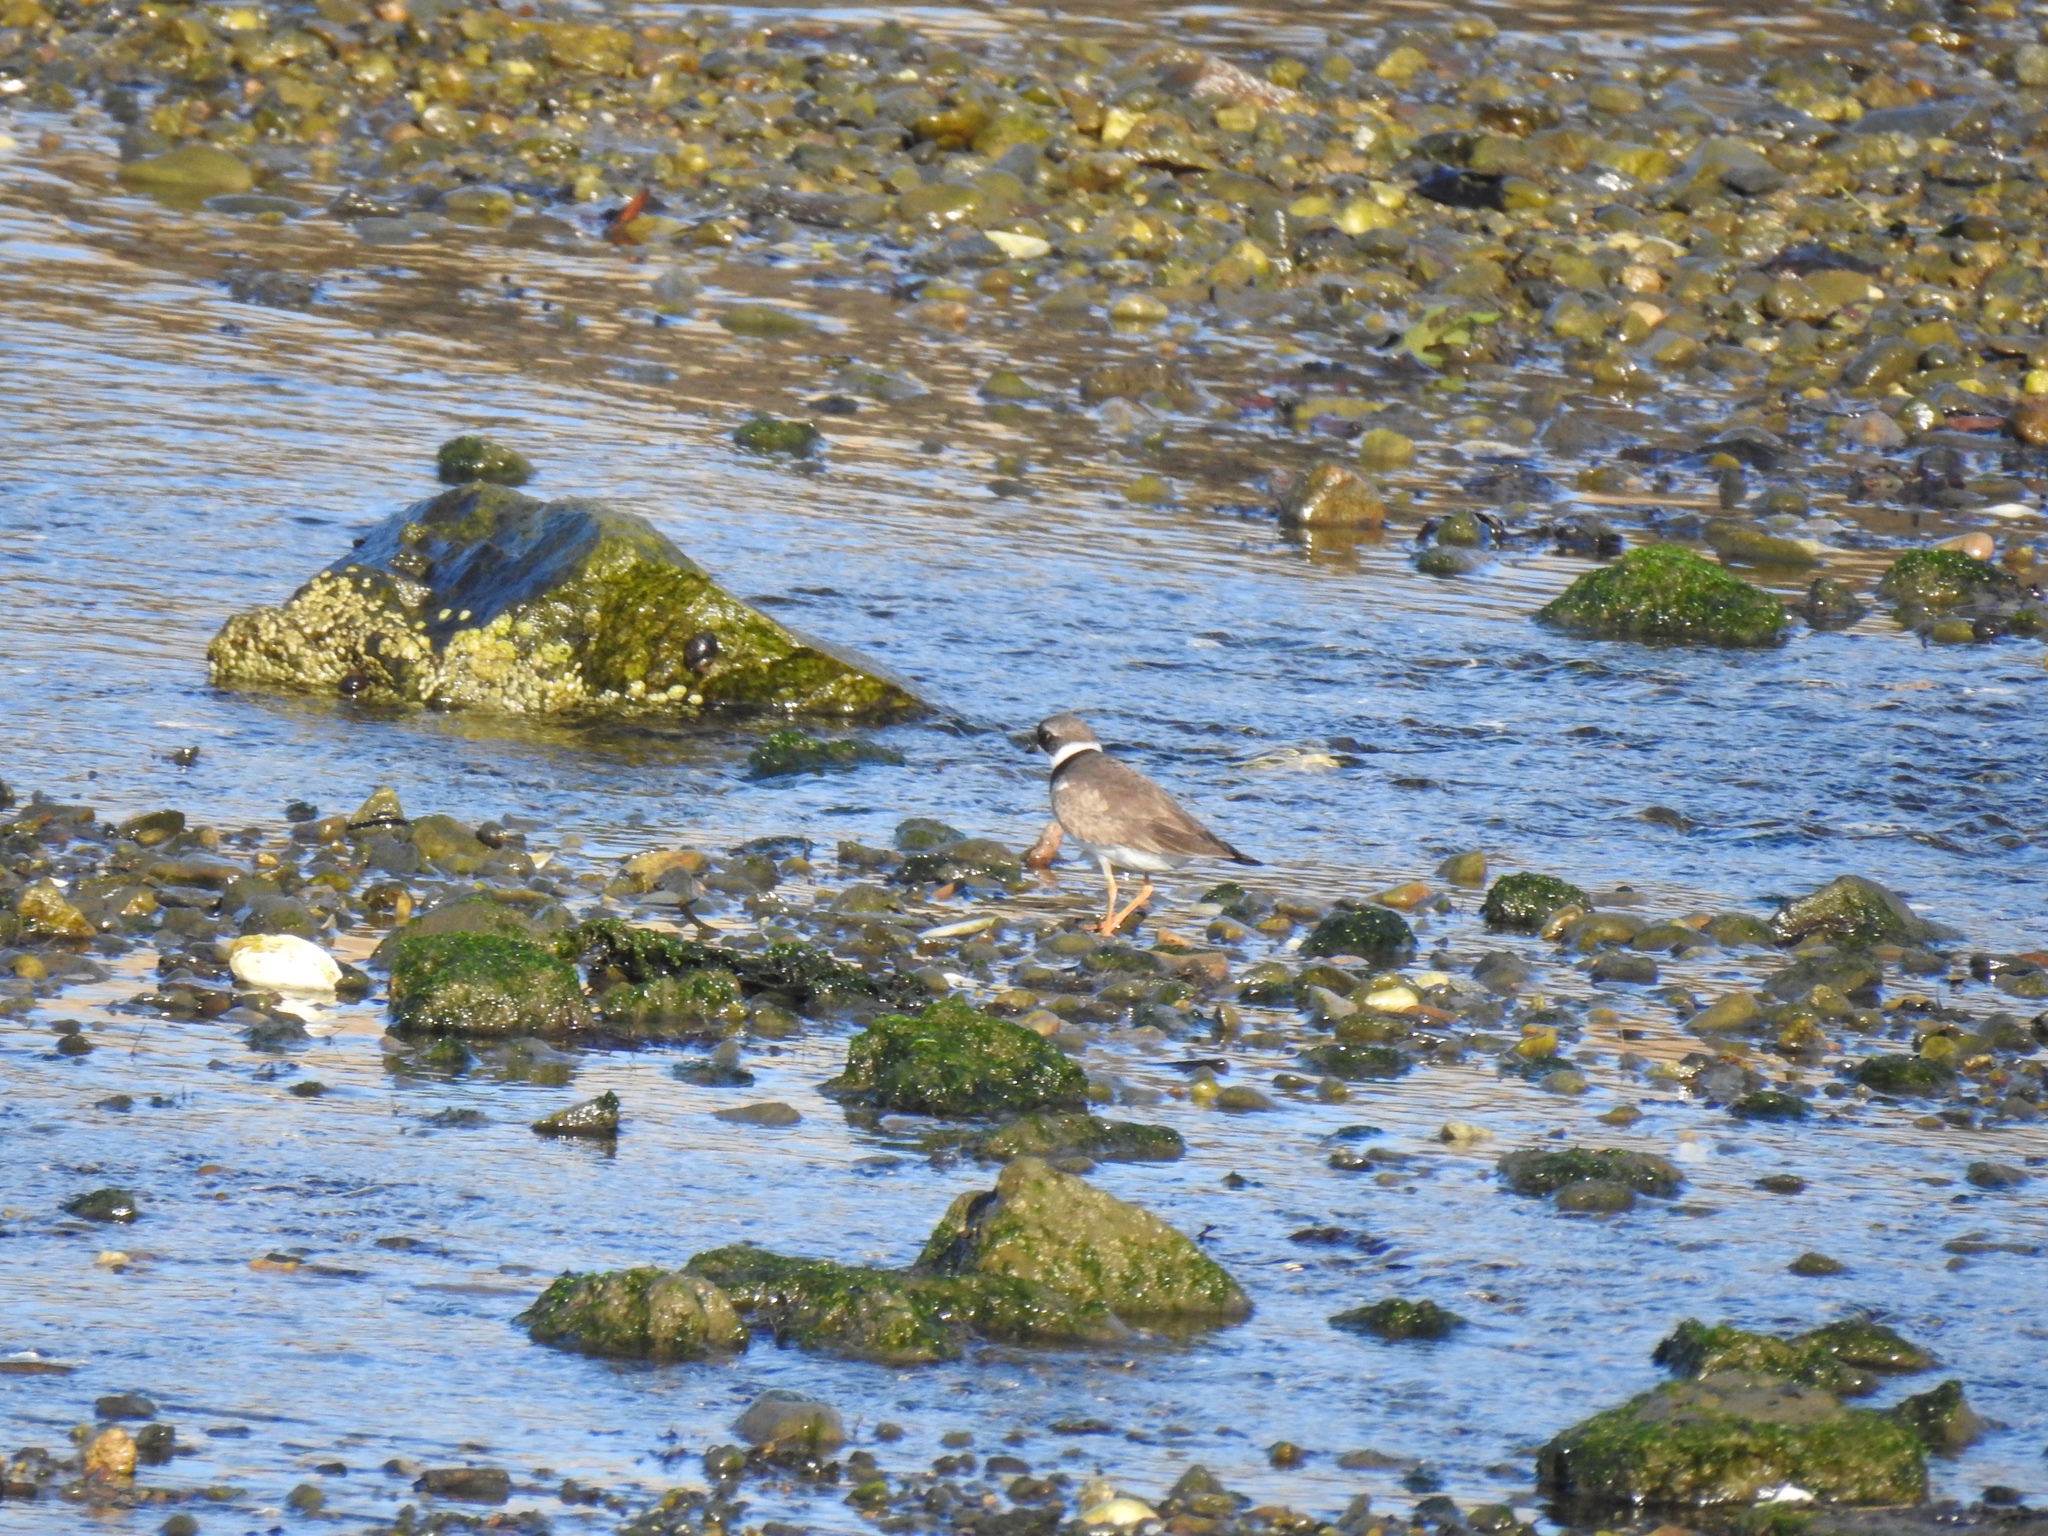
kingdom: Animalia
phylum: Chordata
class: Aves
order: Charadriiformes
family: Charadriidae
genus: Charadrius
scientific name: Charadrius semipalmatus
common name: Semipalmated plover
